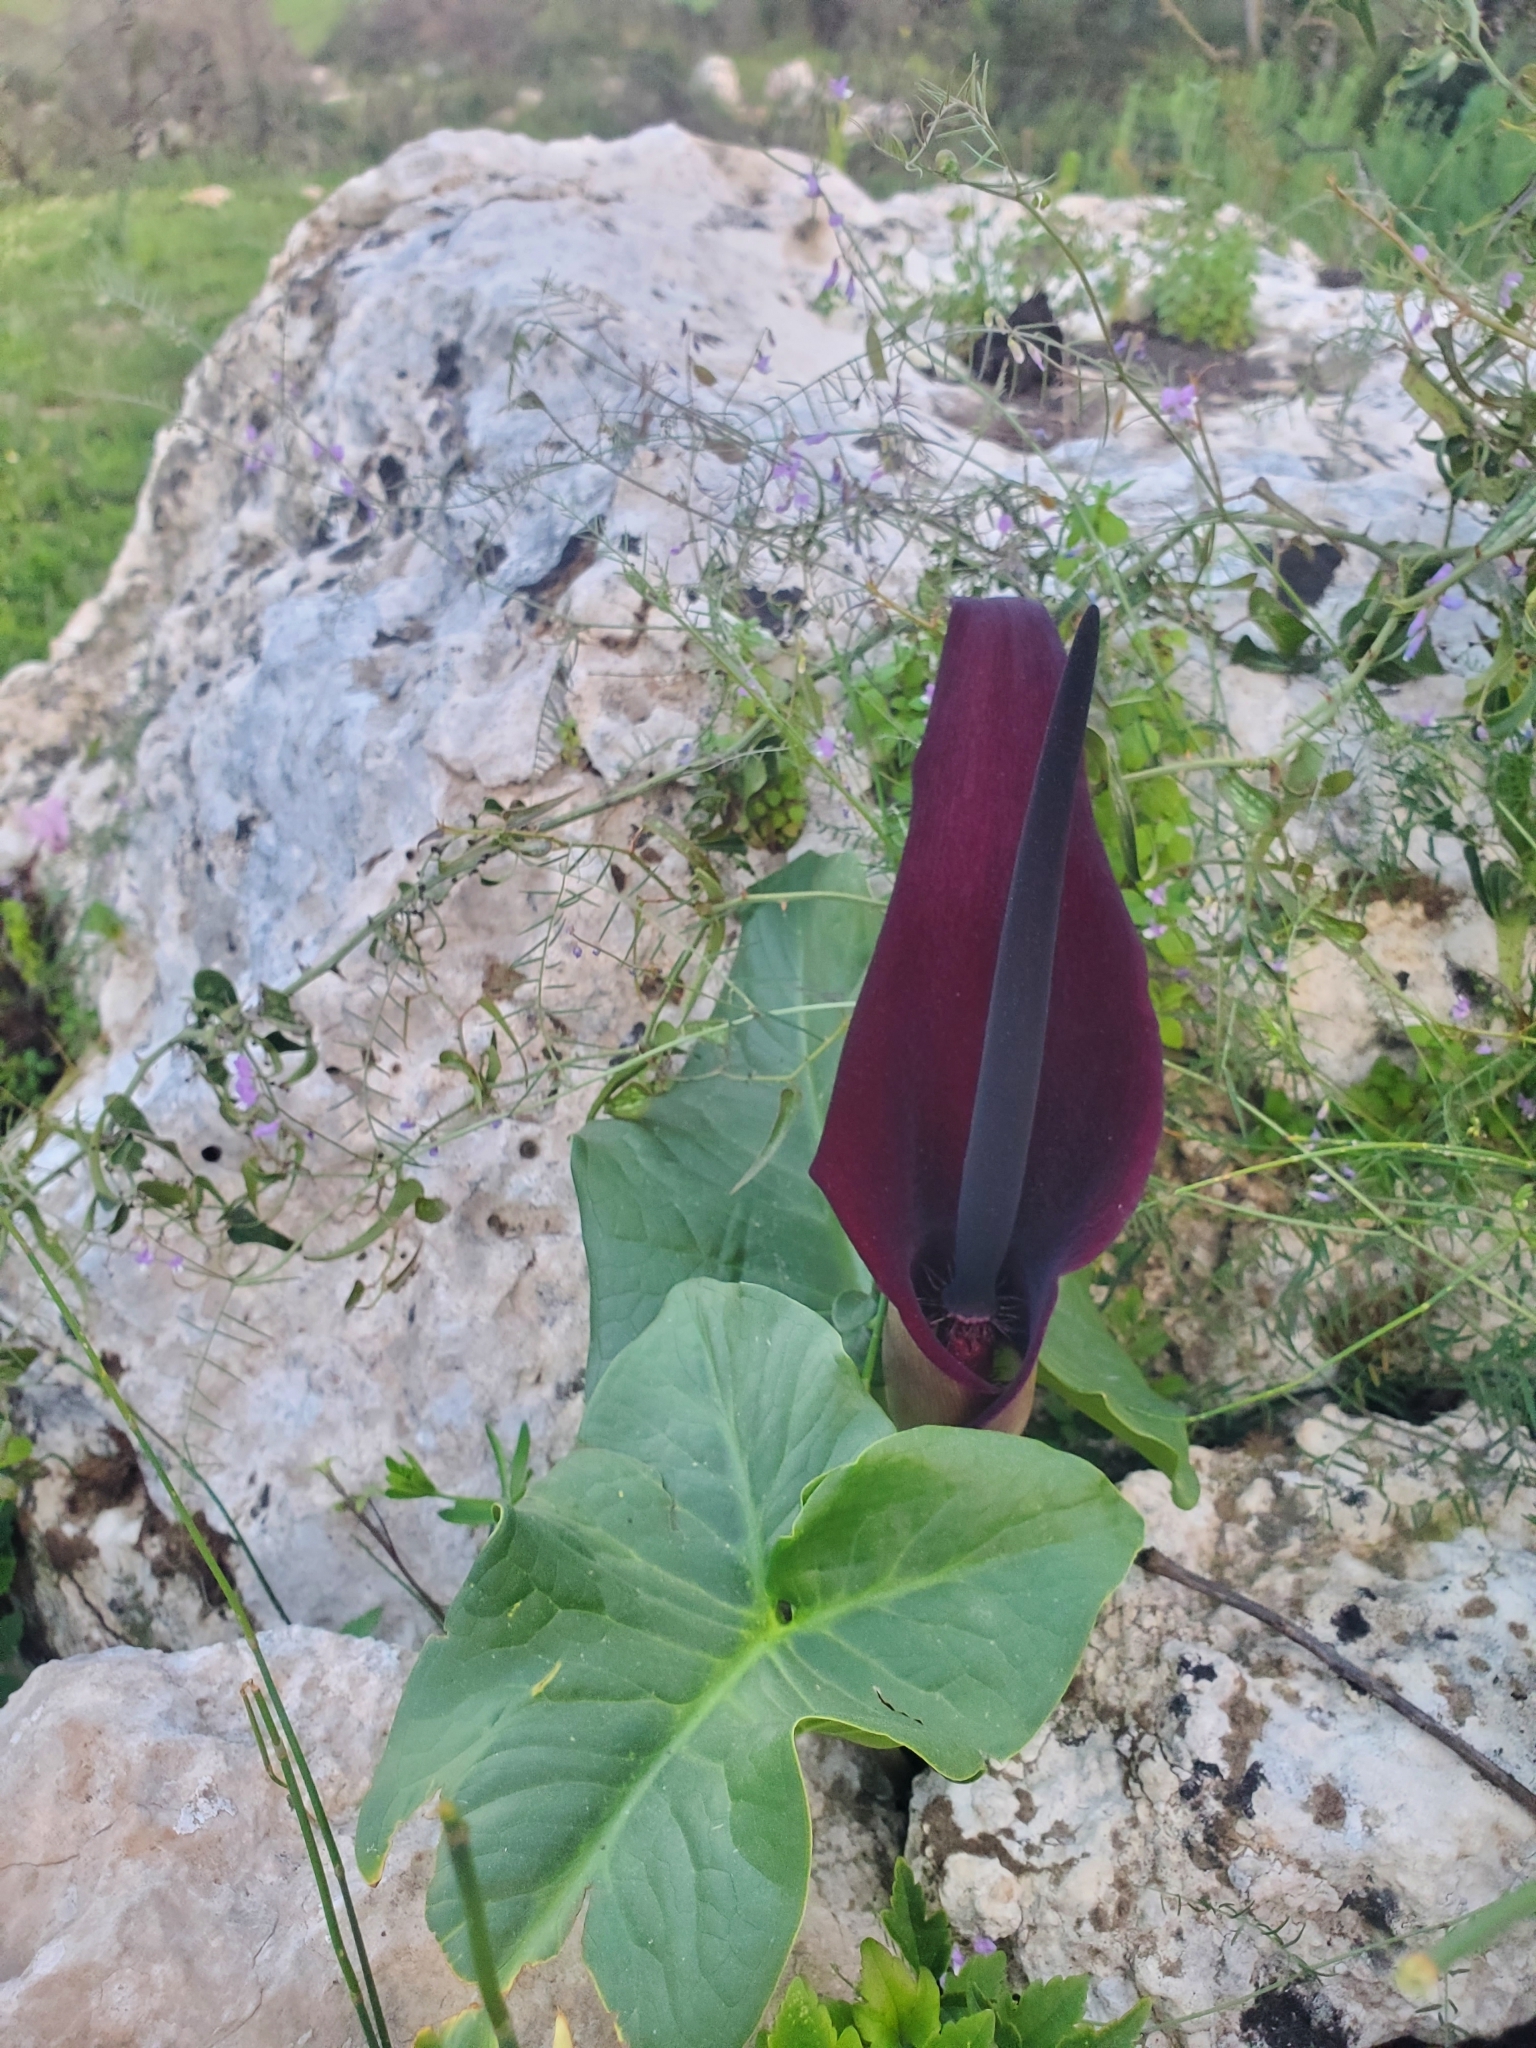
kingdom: Plantae
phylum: Tracheophyta
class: Liliopsida
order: Alismatales
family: Araceae
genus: Arum
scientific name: Arum palaestinum
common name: Solomon's lily
